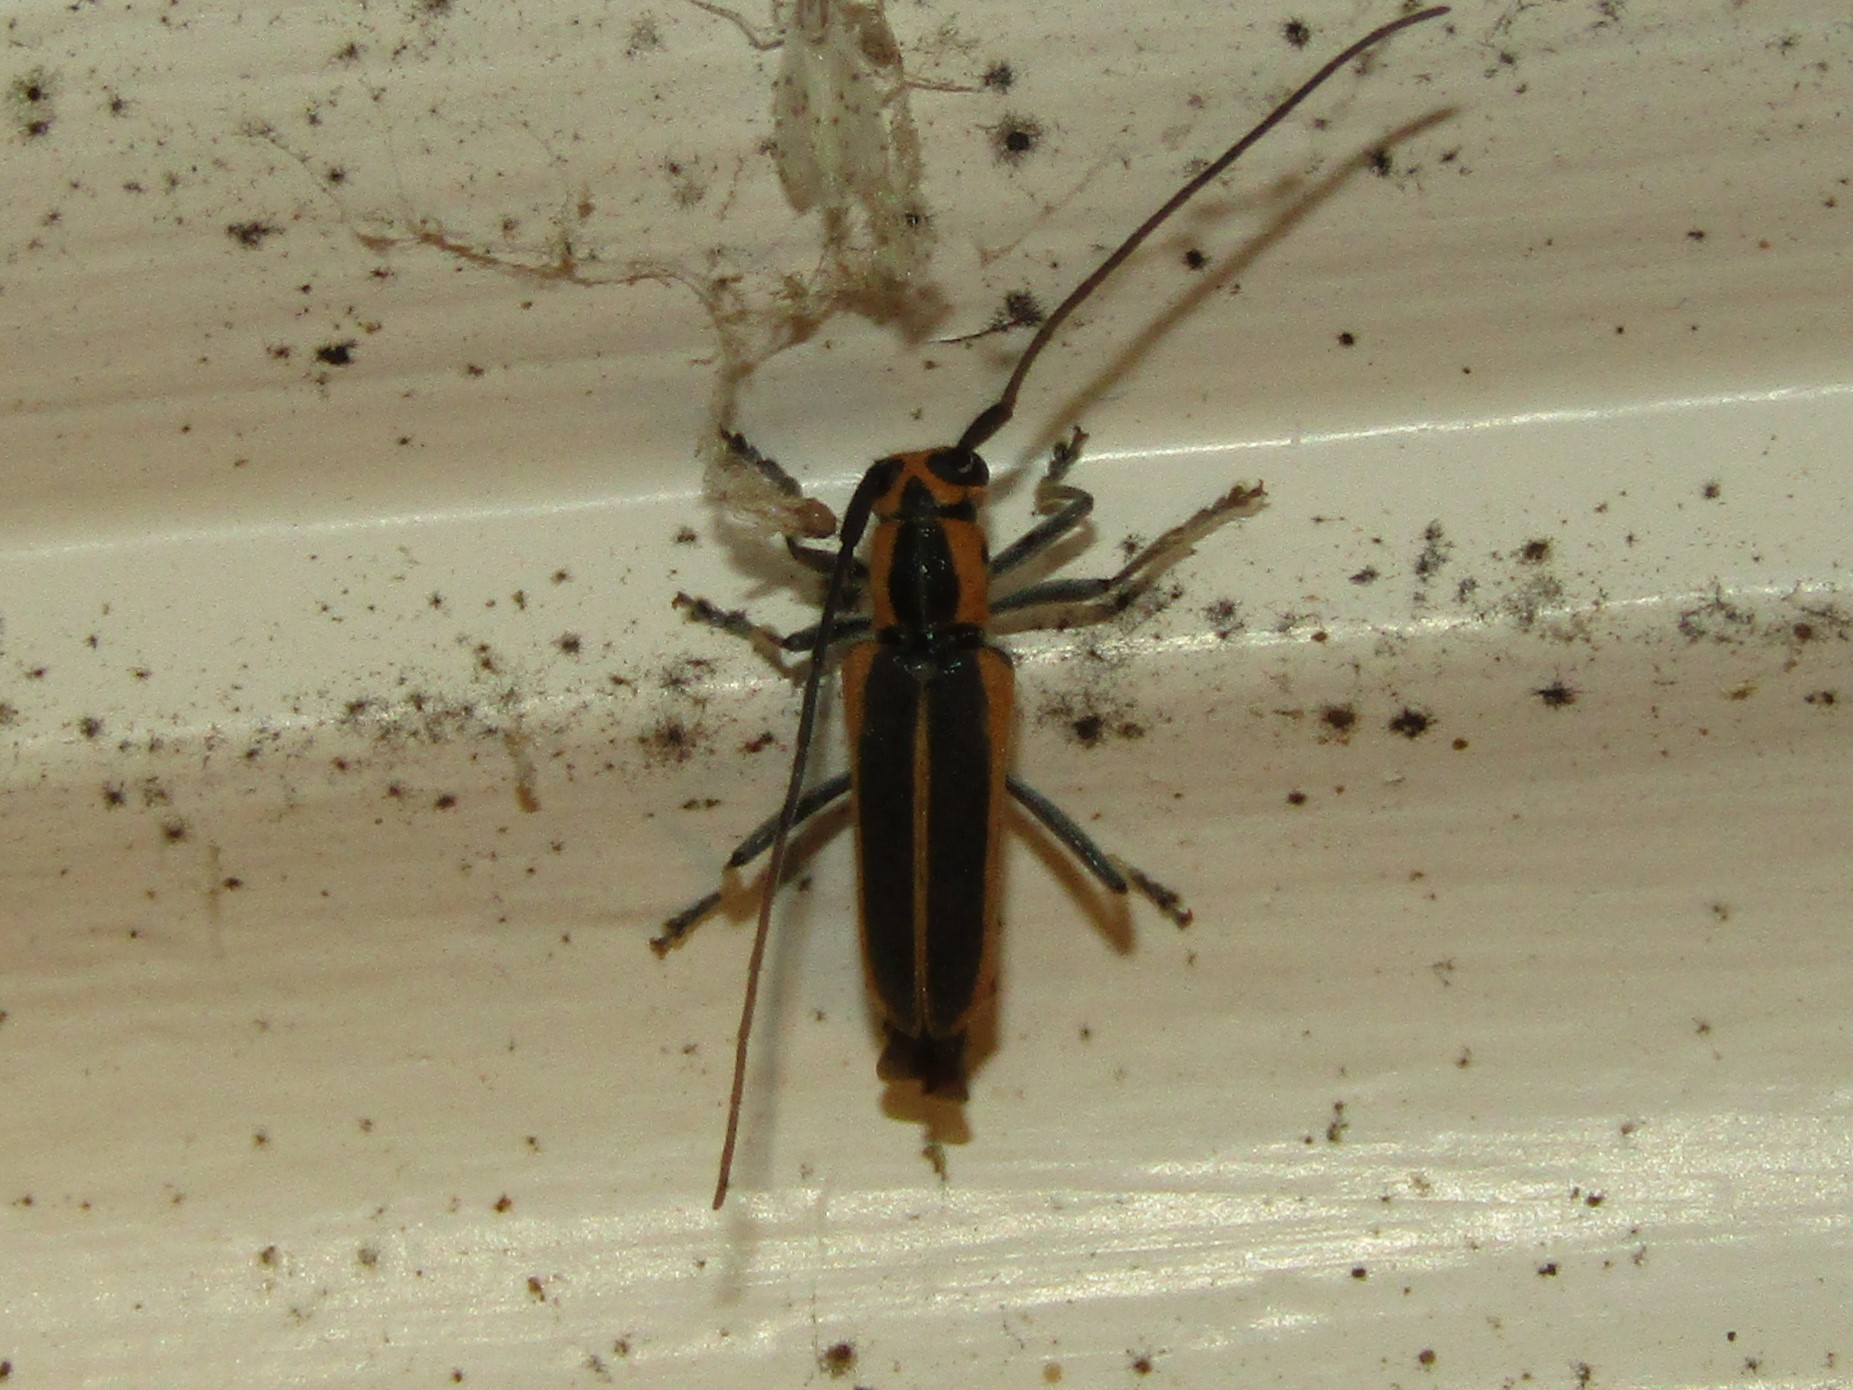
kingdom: Animalia
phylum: Arthropoda
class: Insecta
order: Coleoptera
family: Cerambycidae
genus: Saperda
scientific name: Saperda lateralis
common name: Red-edged saperda
